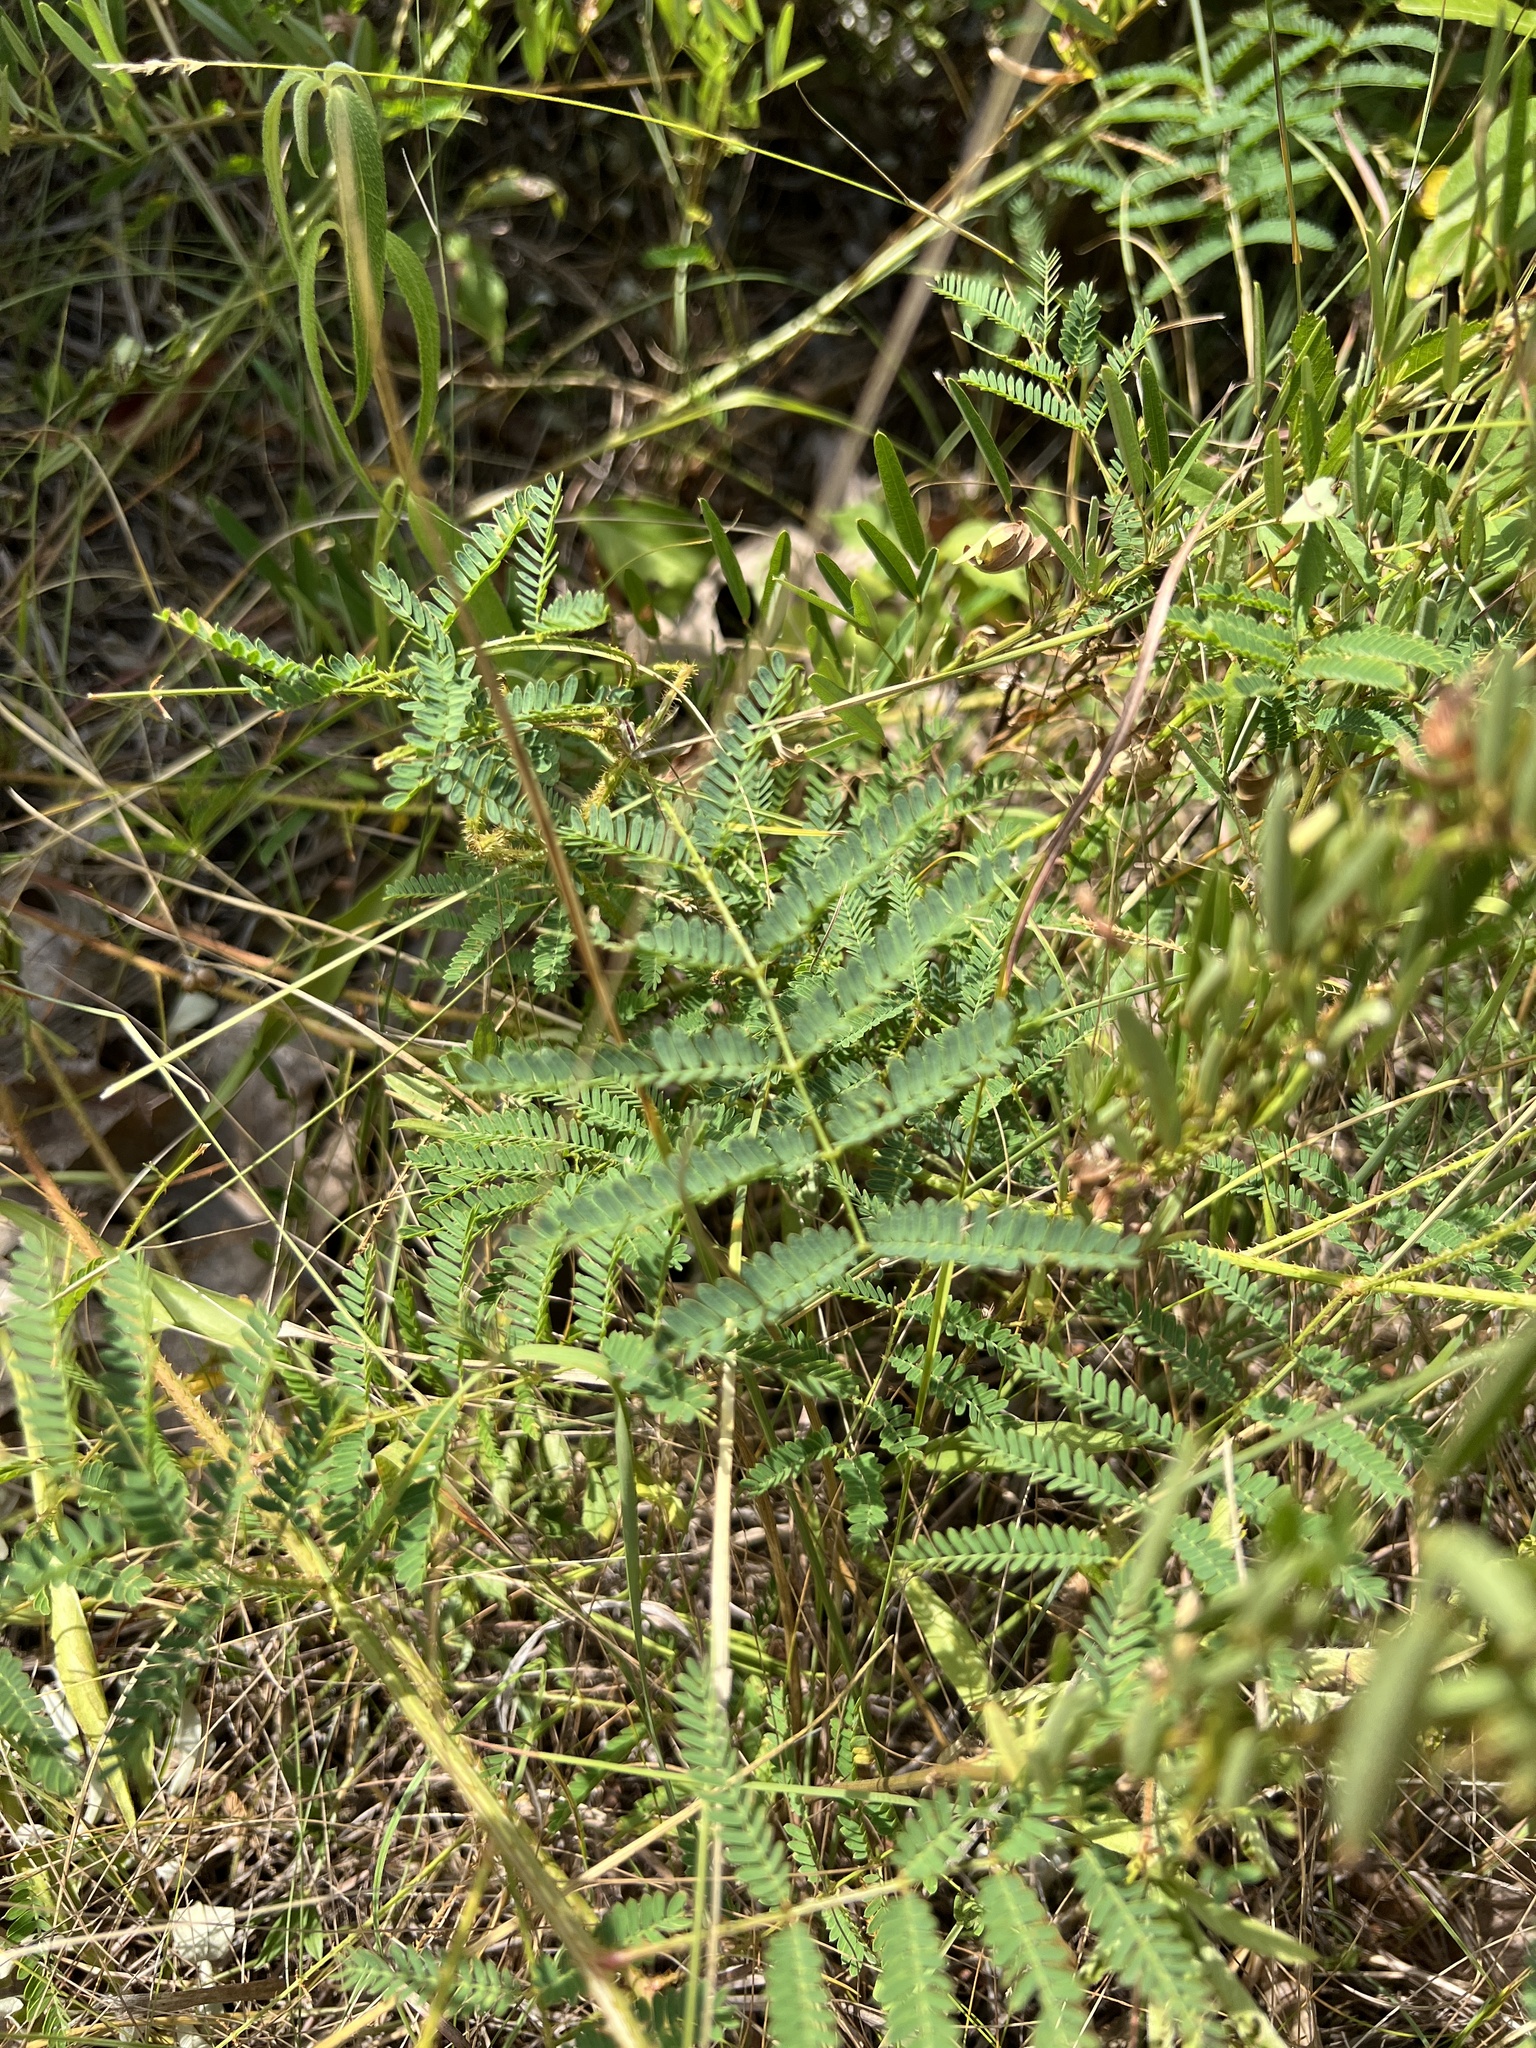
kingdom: Plantae
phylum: Tracheophyta
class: Magnoliopsida
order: Fabales
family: Fabaceae
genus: Mimosa
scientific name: Mimosa quadrivalvis
